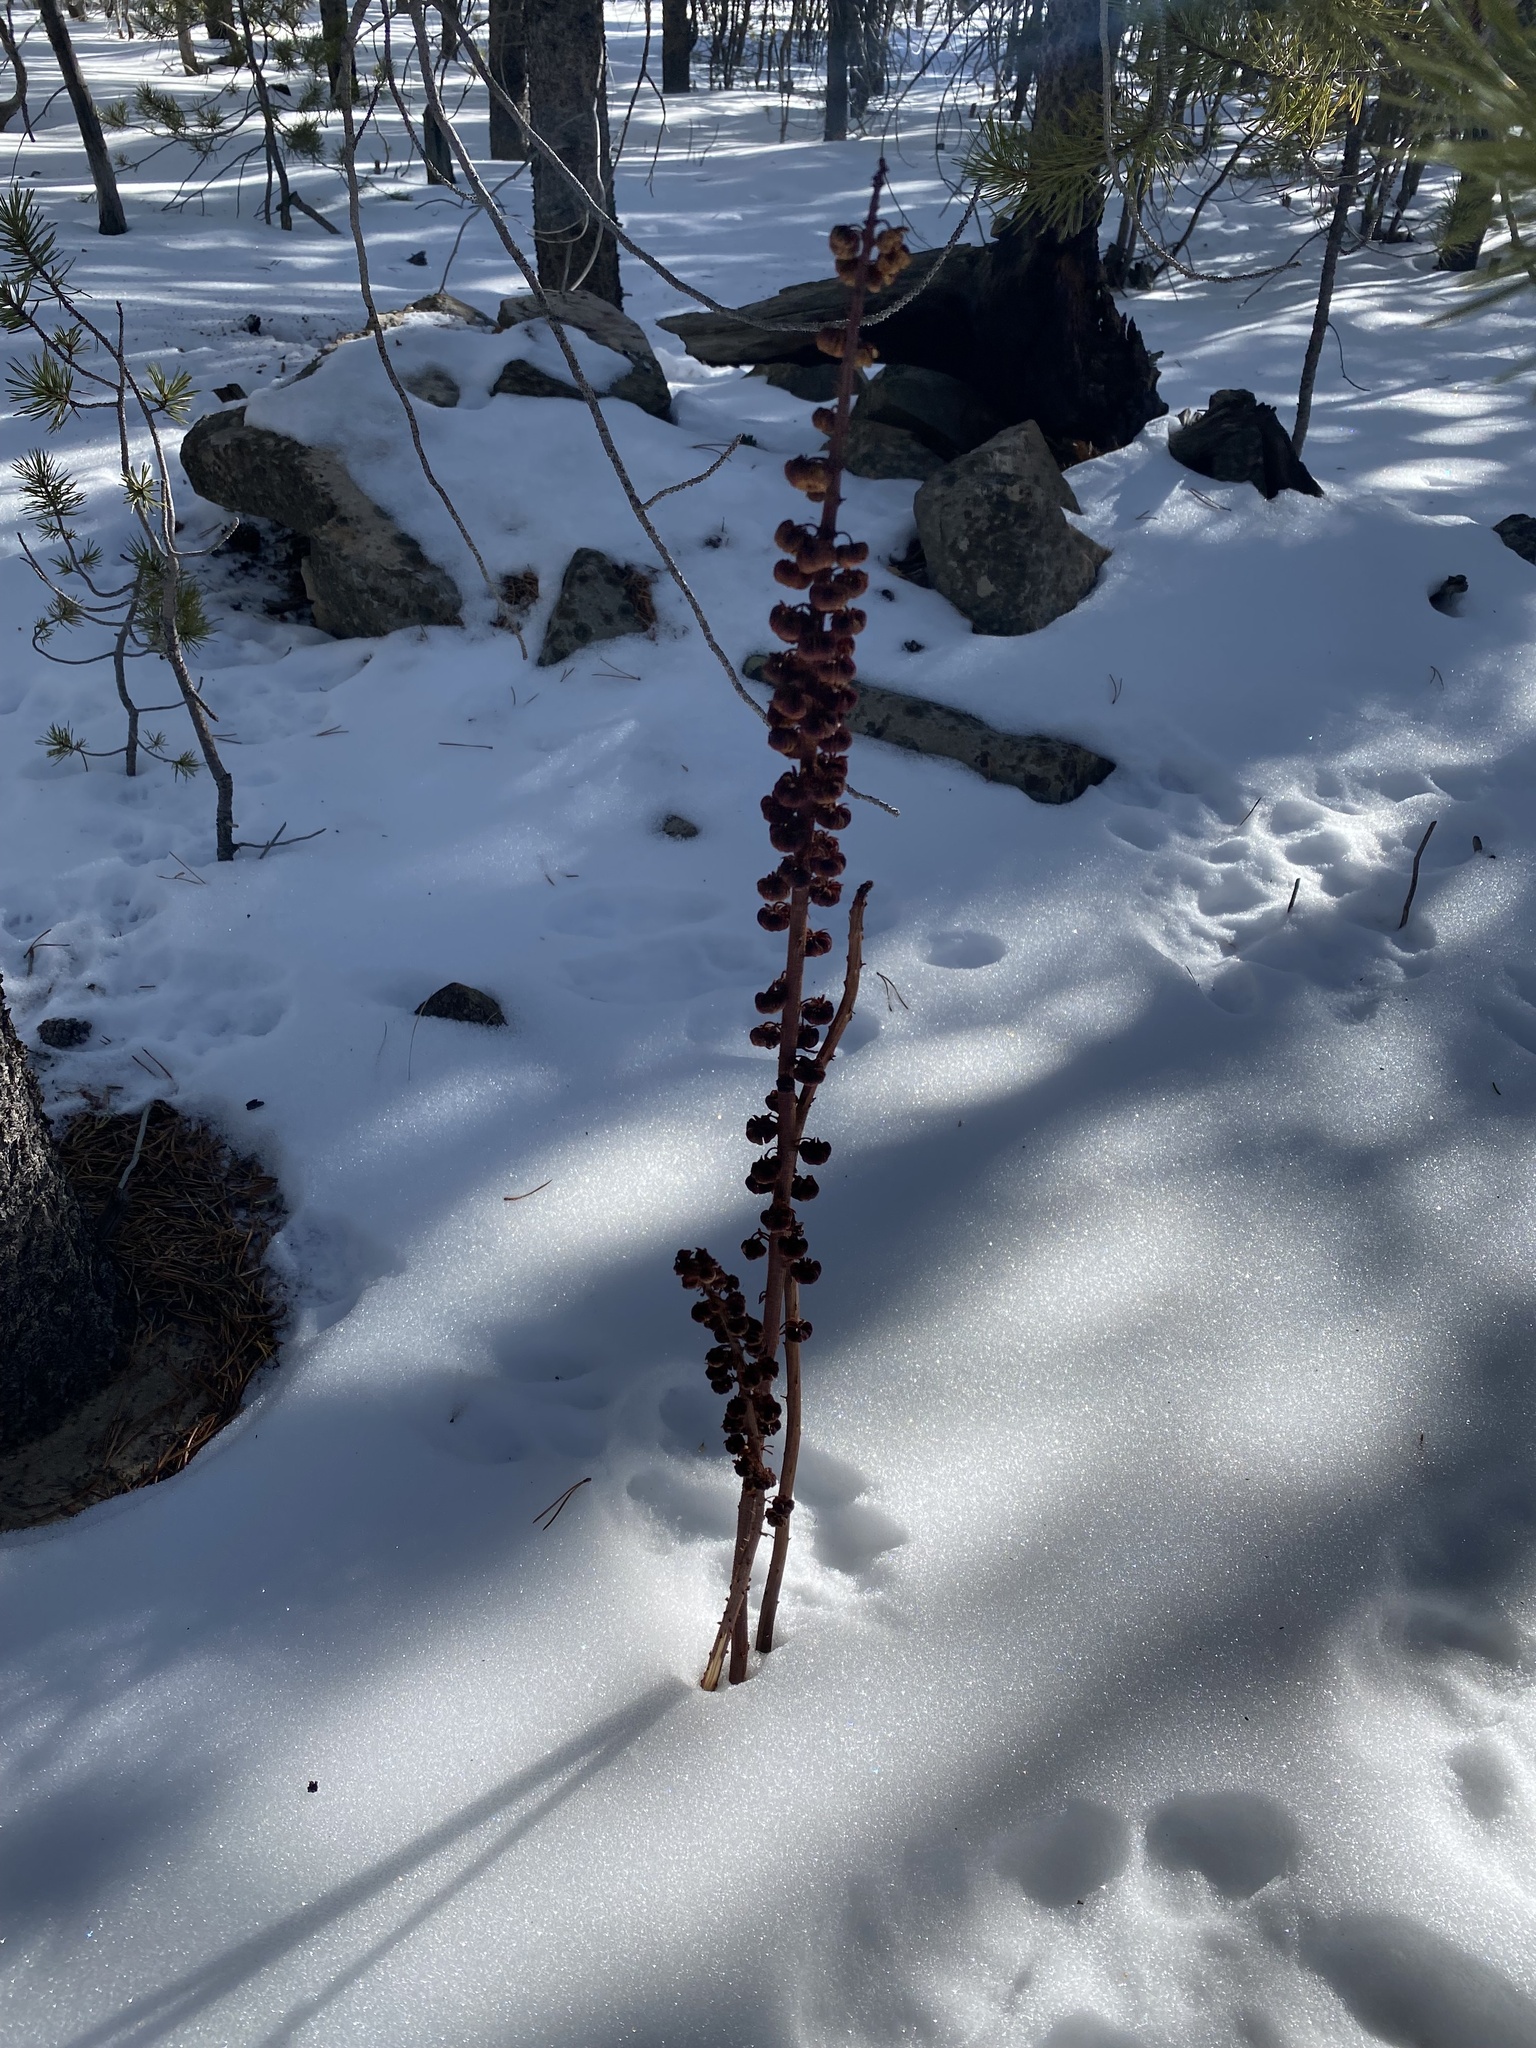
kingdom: Plantae
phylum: Tracheophyta
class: Magnoliopsida
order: Ericales
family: Ericaceae
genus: Pterospora
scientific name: Pterospora andromedea
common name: Giant bird's-nest
